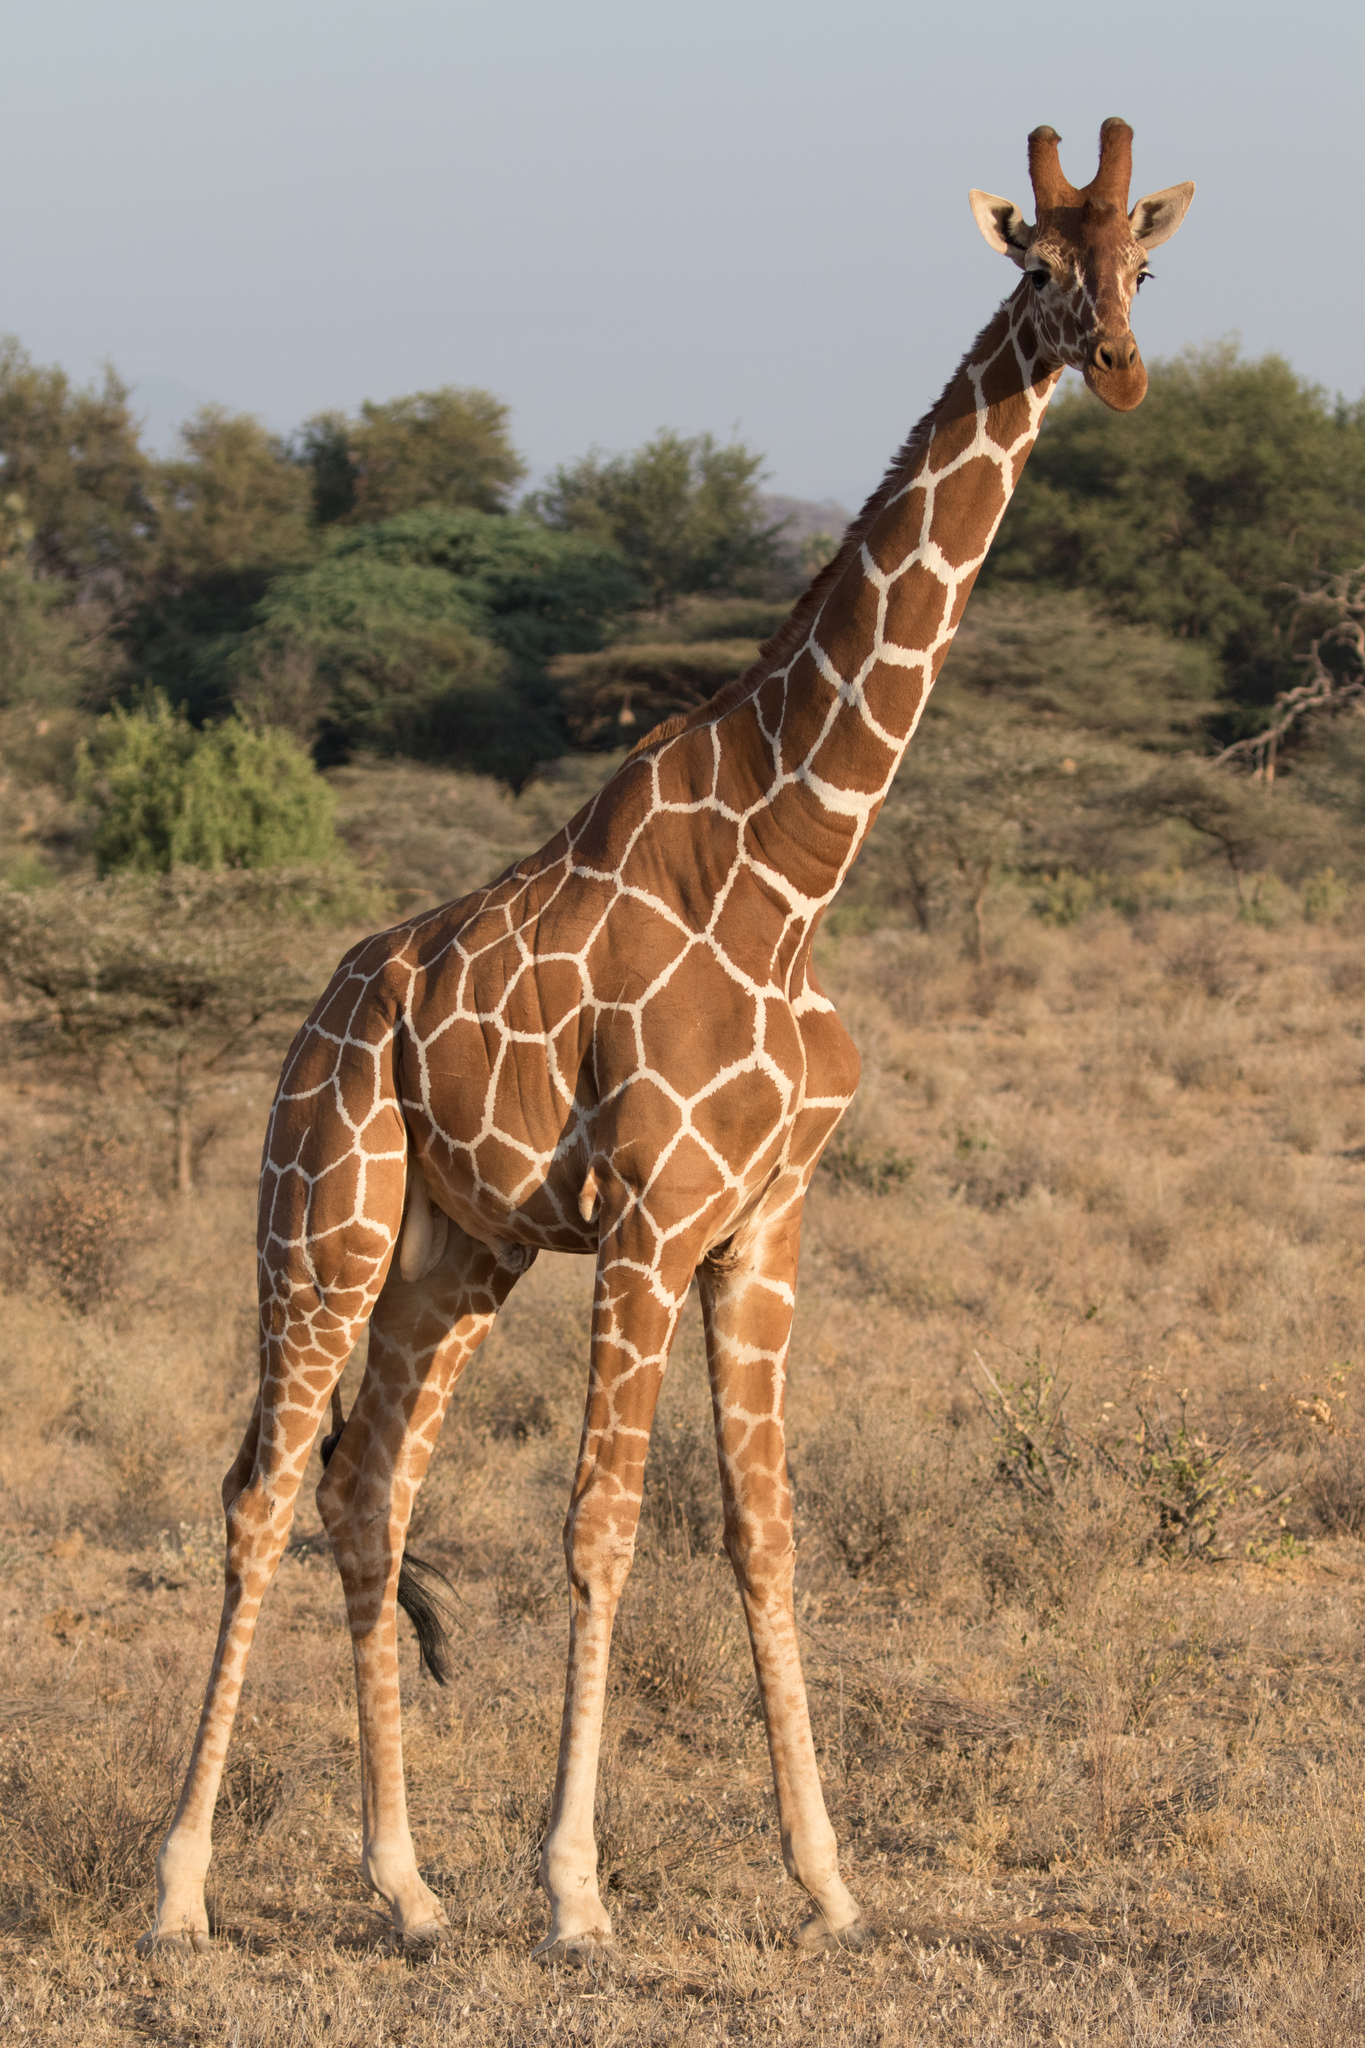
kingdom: Animalia
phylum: Chordata
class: Mammalia
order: Artiodactyla
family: Giraffidae
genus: Giraffa
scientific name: Giraffa reticulata
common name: Reticulated giraffe
